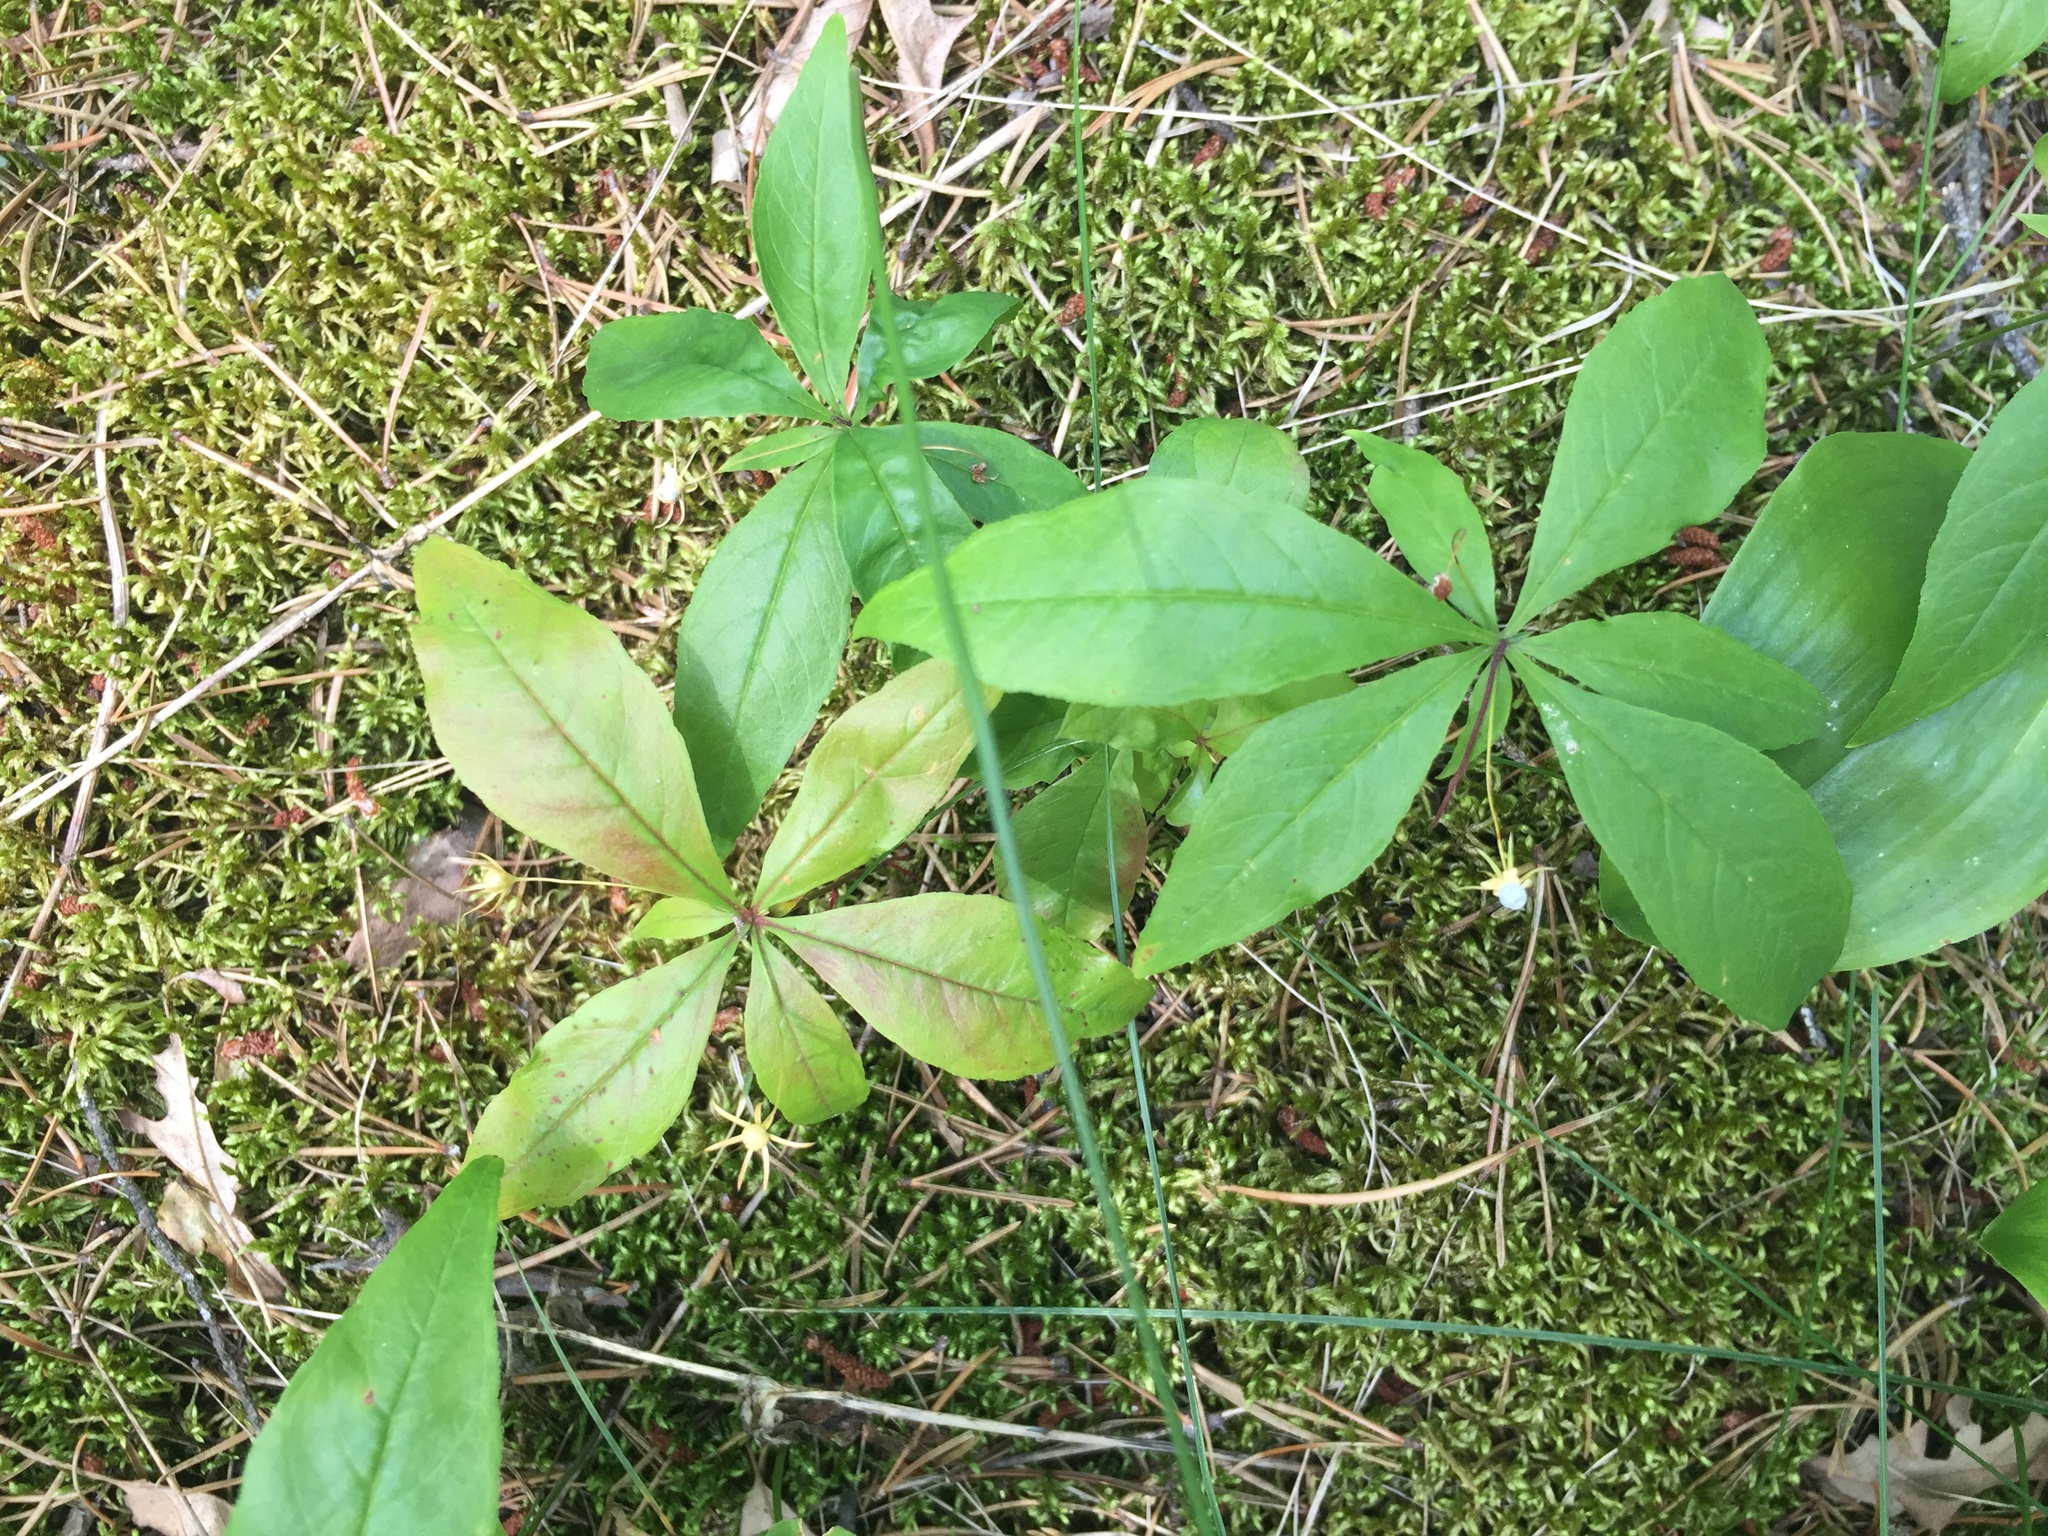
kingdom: Plantae
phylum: Tracheophyta
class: Magnoliopsida
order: Ericales
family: Primulaceae
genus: Lysimachia
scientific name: Lysimachia borealis
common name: American starflower
